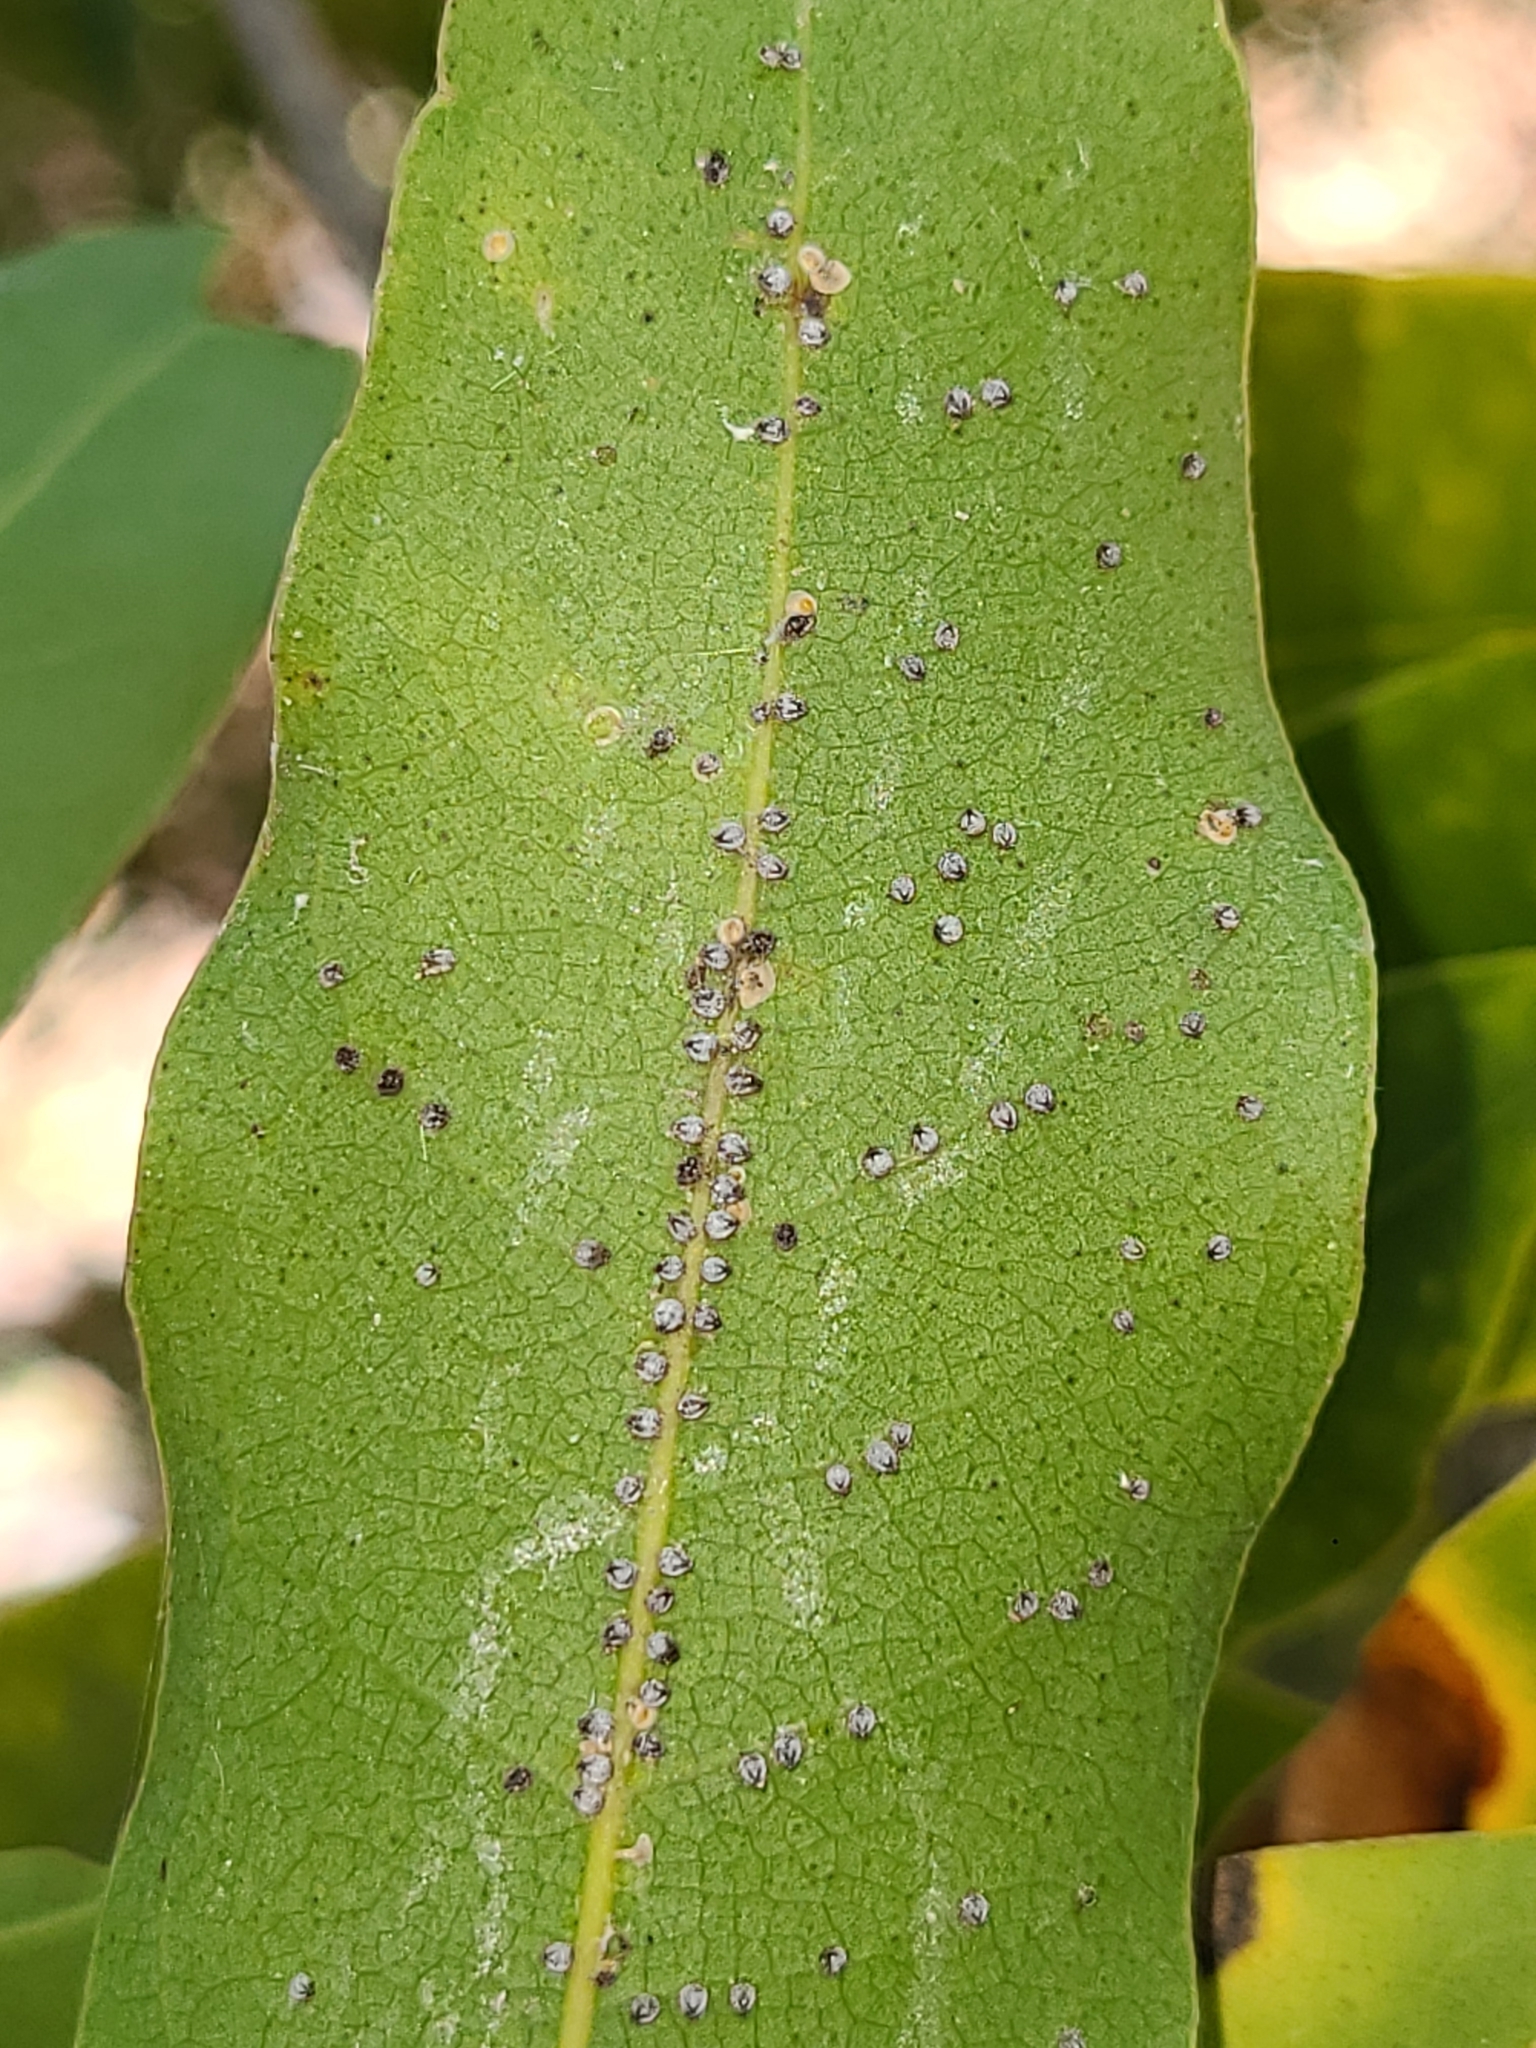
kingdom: Animalia
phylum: Arthropoda
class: Insecta
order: Hemiptera
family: Aphididae
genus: Euthoracaphis
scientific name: Euthoracaphis umbellulariae
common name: Aphid
